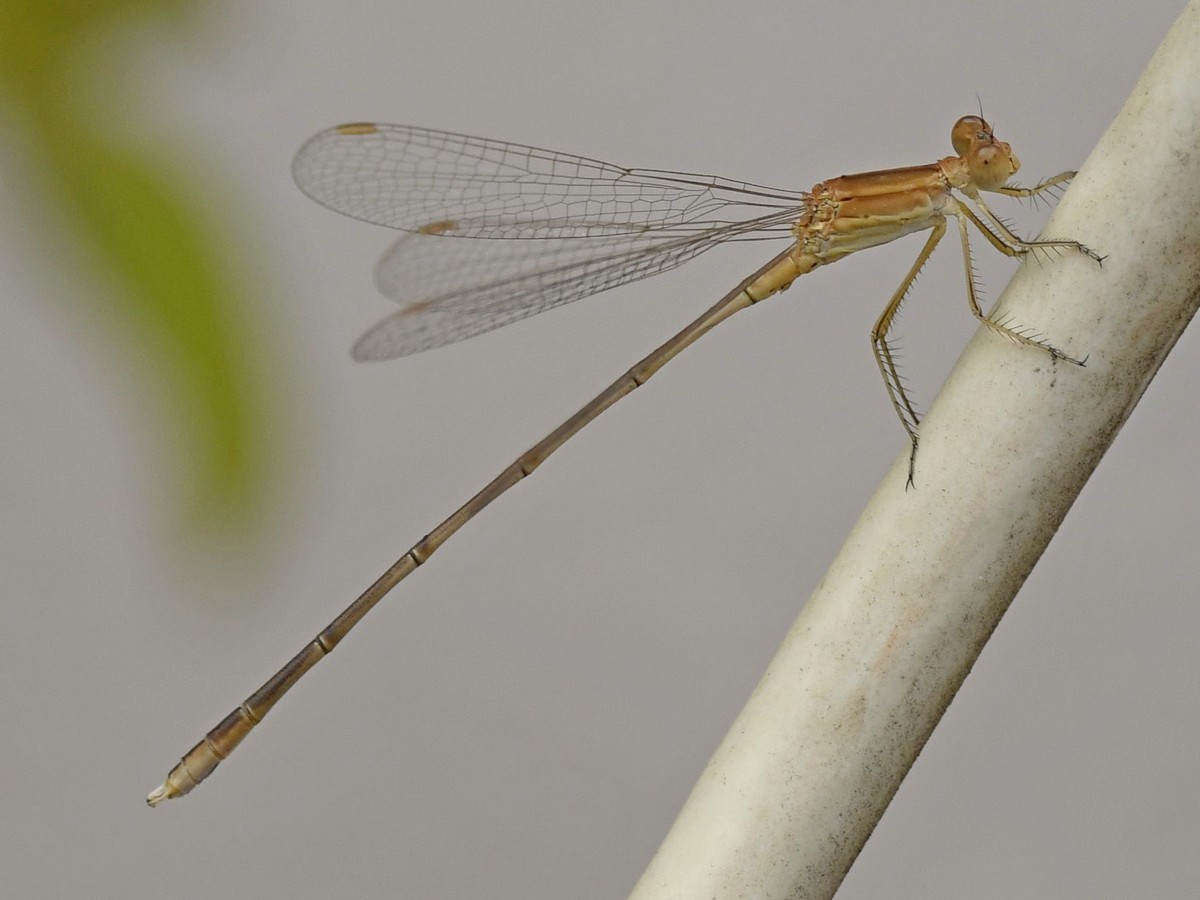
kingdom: Animalia
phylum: Arthropoda
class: Insecta
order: Odonata
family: Lestidae
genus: Lestes
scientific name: Lestes concinnus
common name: Dusky spreadwing
